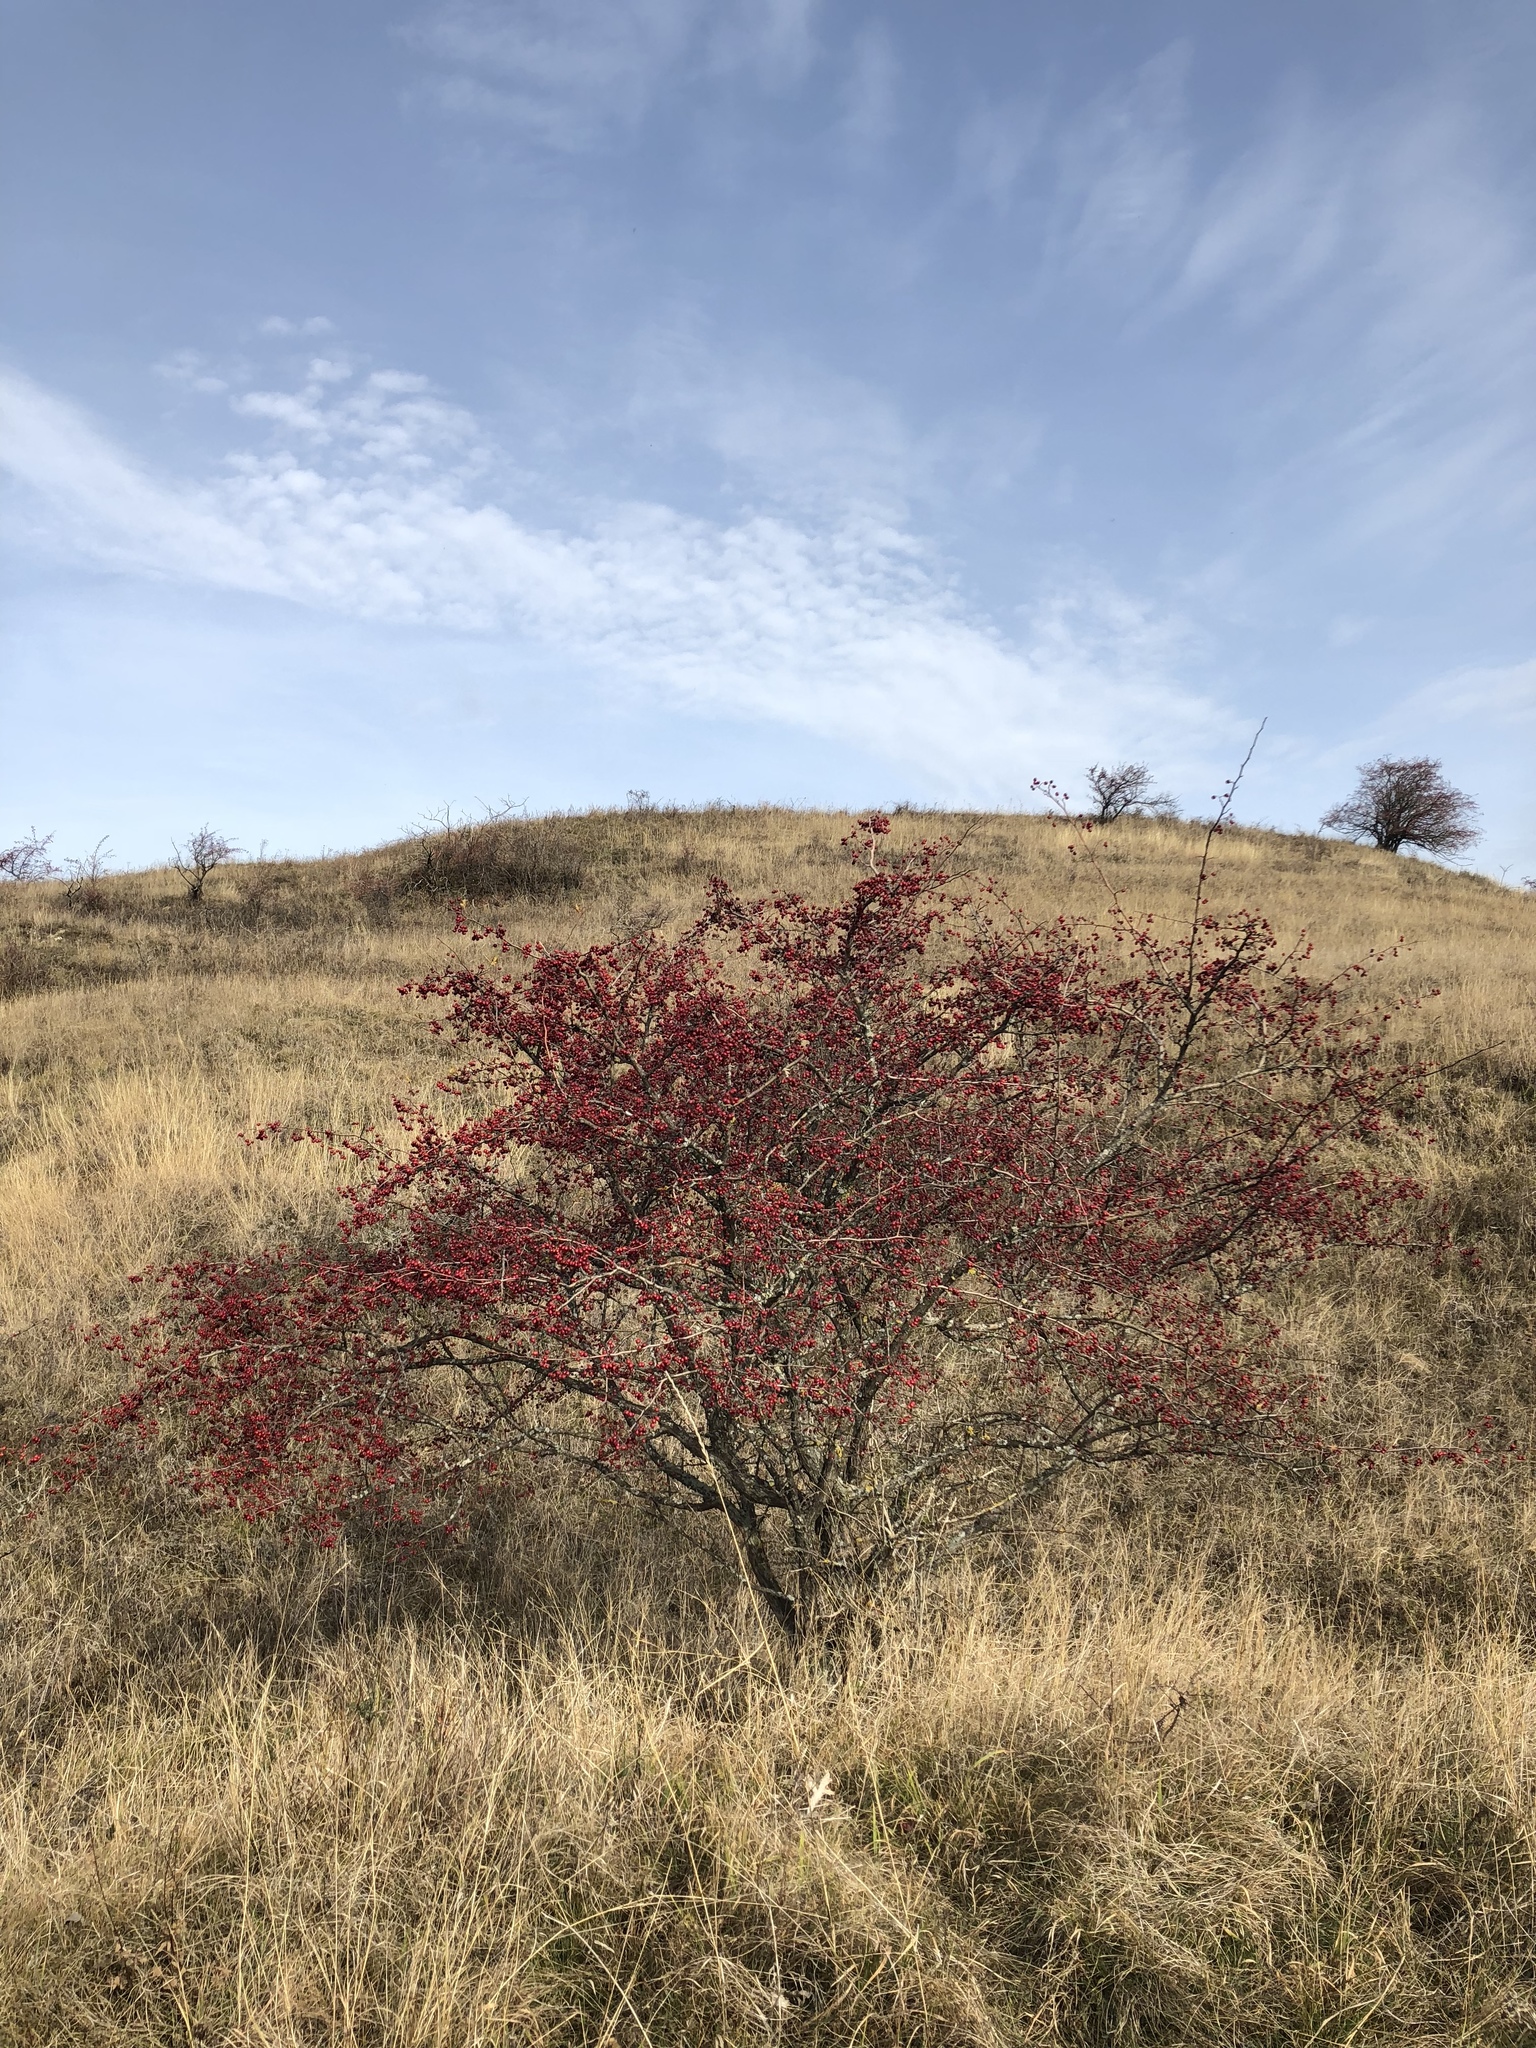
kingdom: Plantae
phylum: Tracheophyta
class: Magnoliopsida
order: Rosales
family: Rosaceae
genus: Crataegus
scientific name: Crataegus monogyna
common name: Hawthorn
